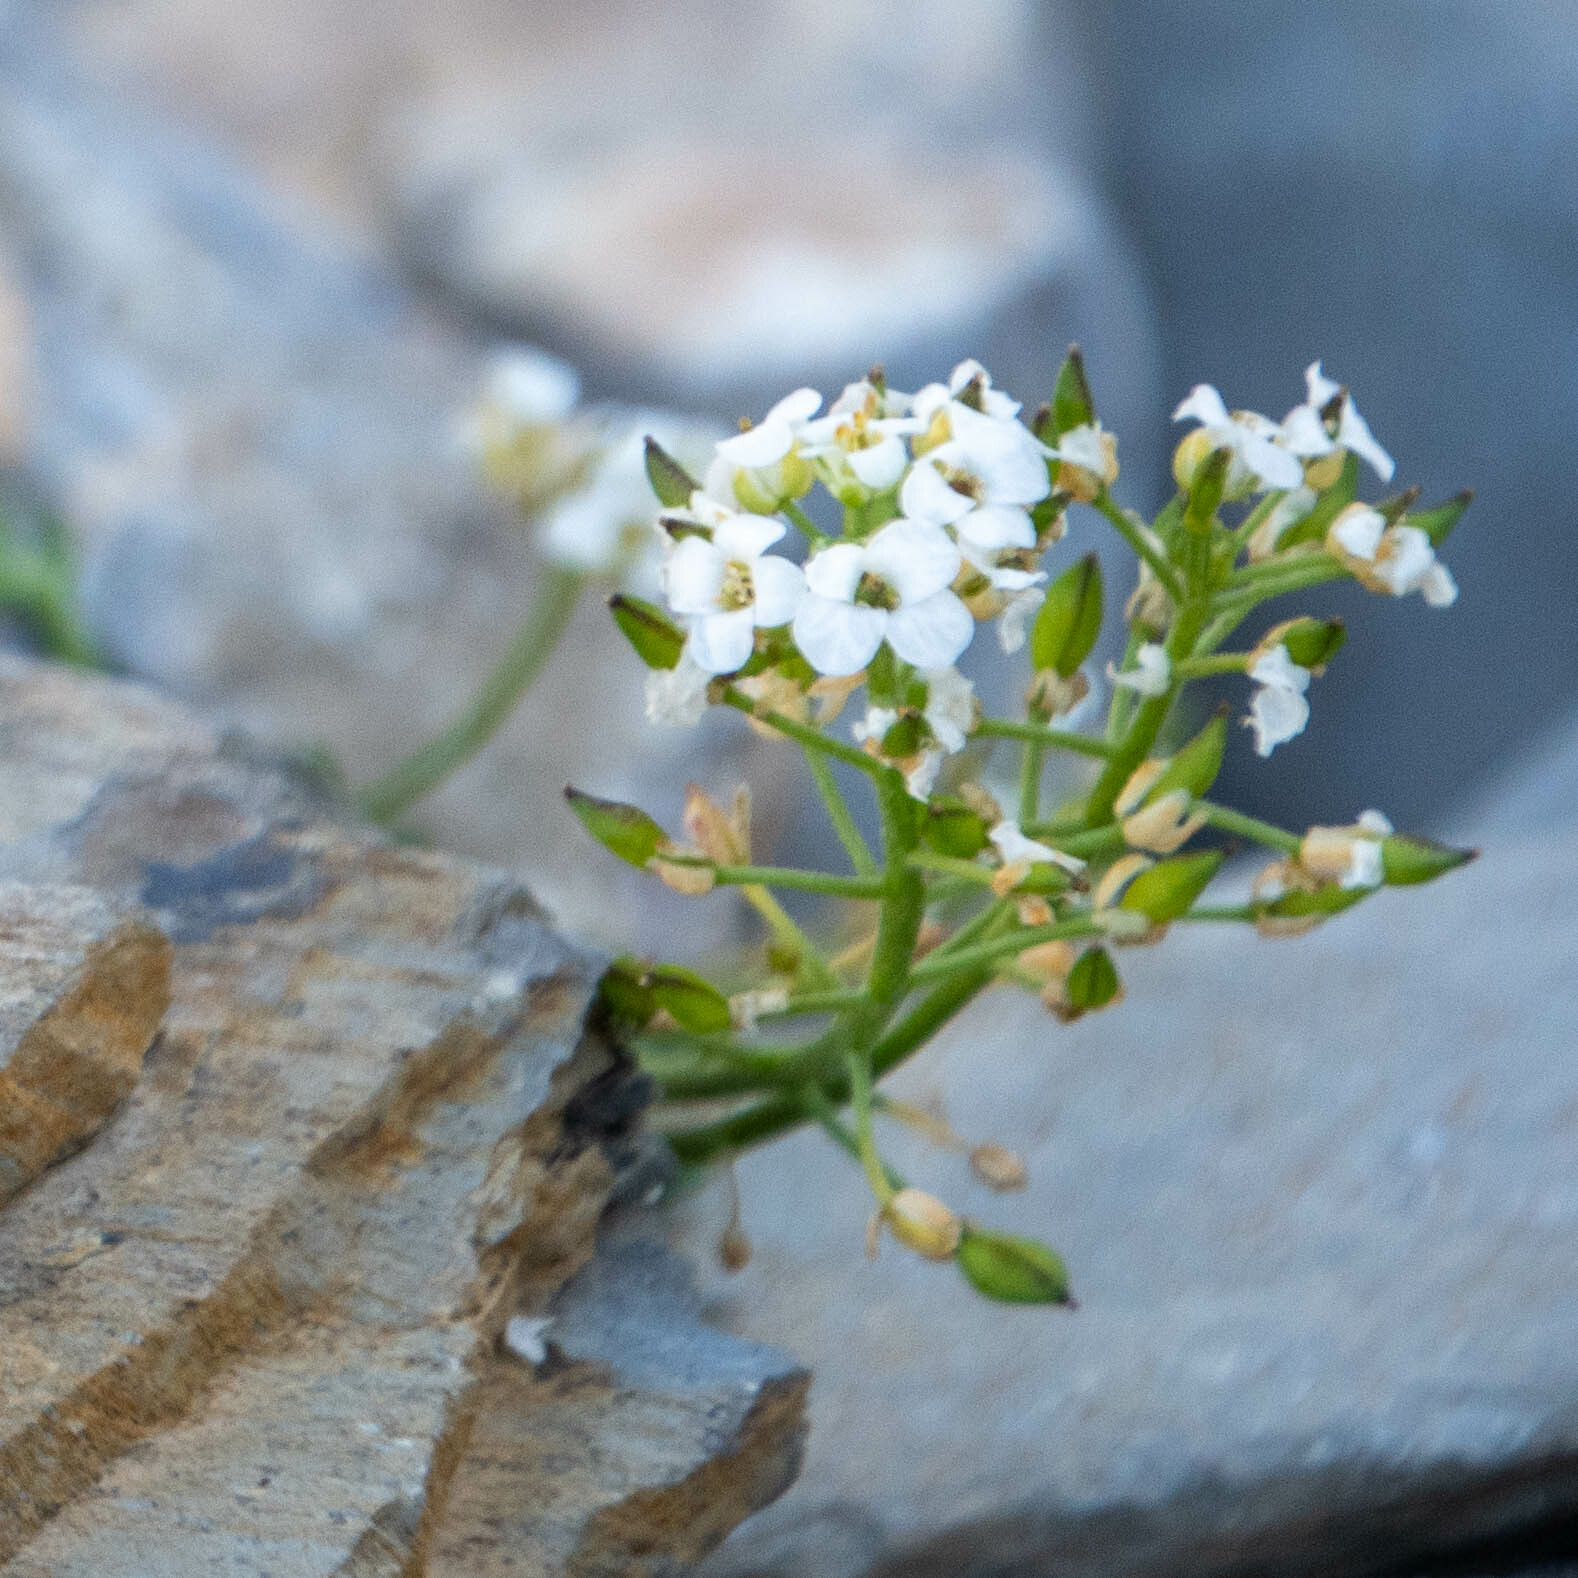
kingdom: Plantae
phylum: Tracheophyta
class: Magnoliopsida
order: Brassicales
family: Brassicaceae
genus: Hornungia
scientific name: Hornungia alpina
